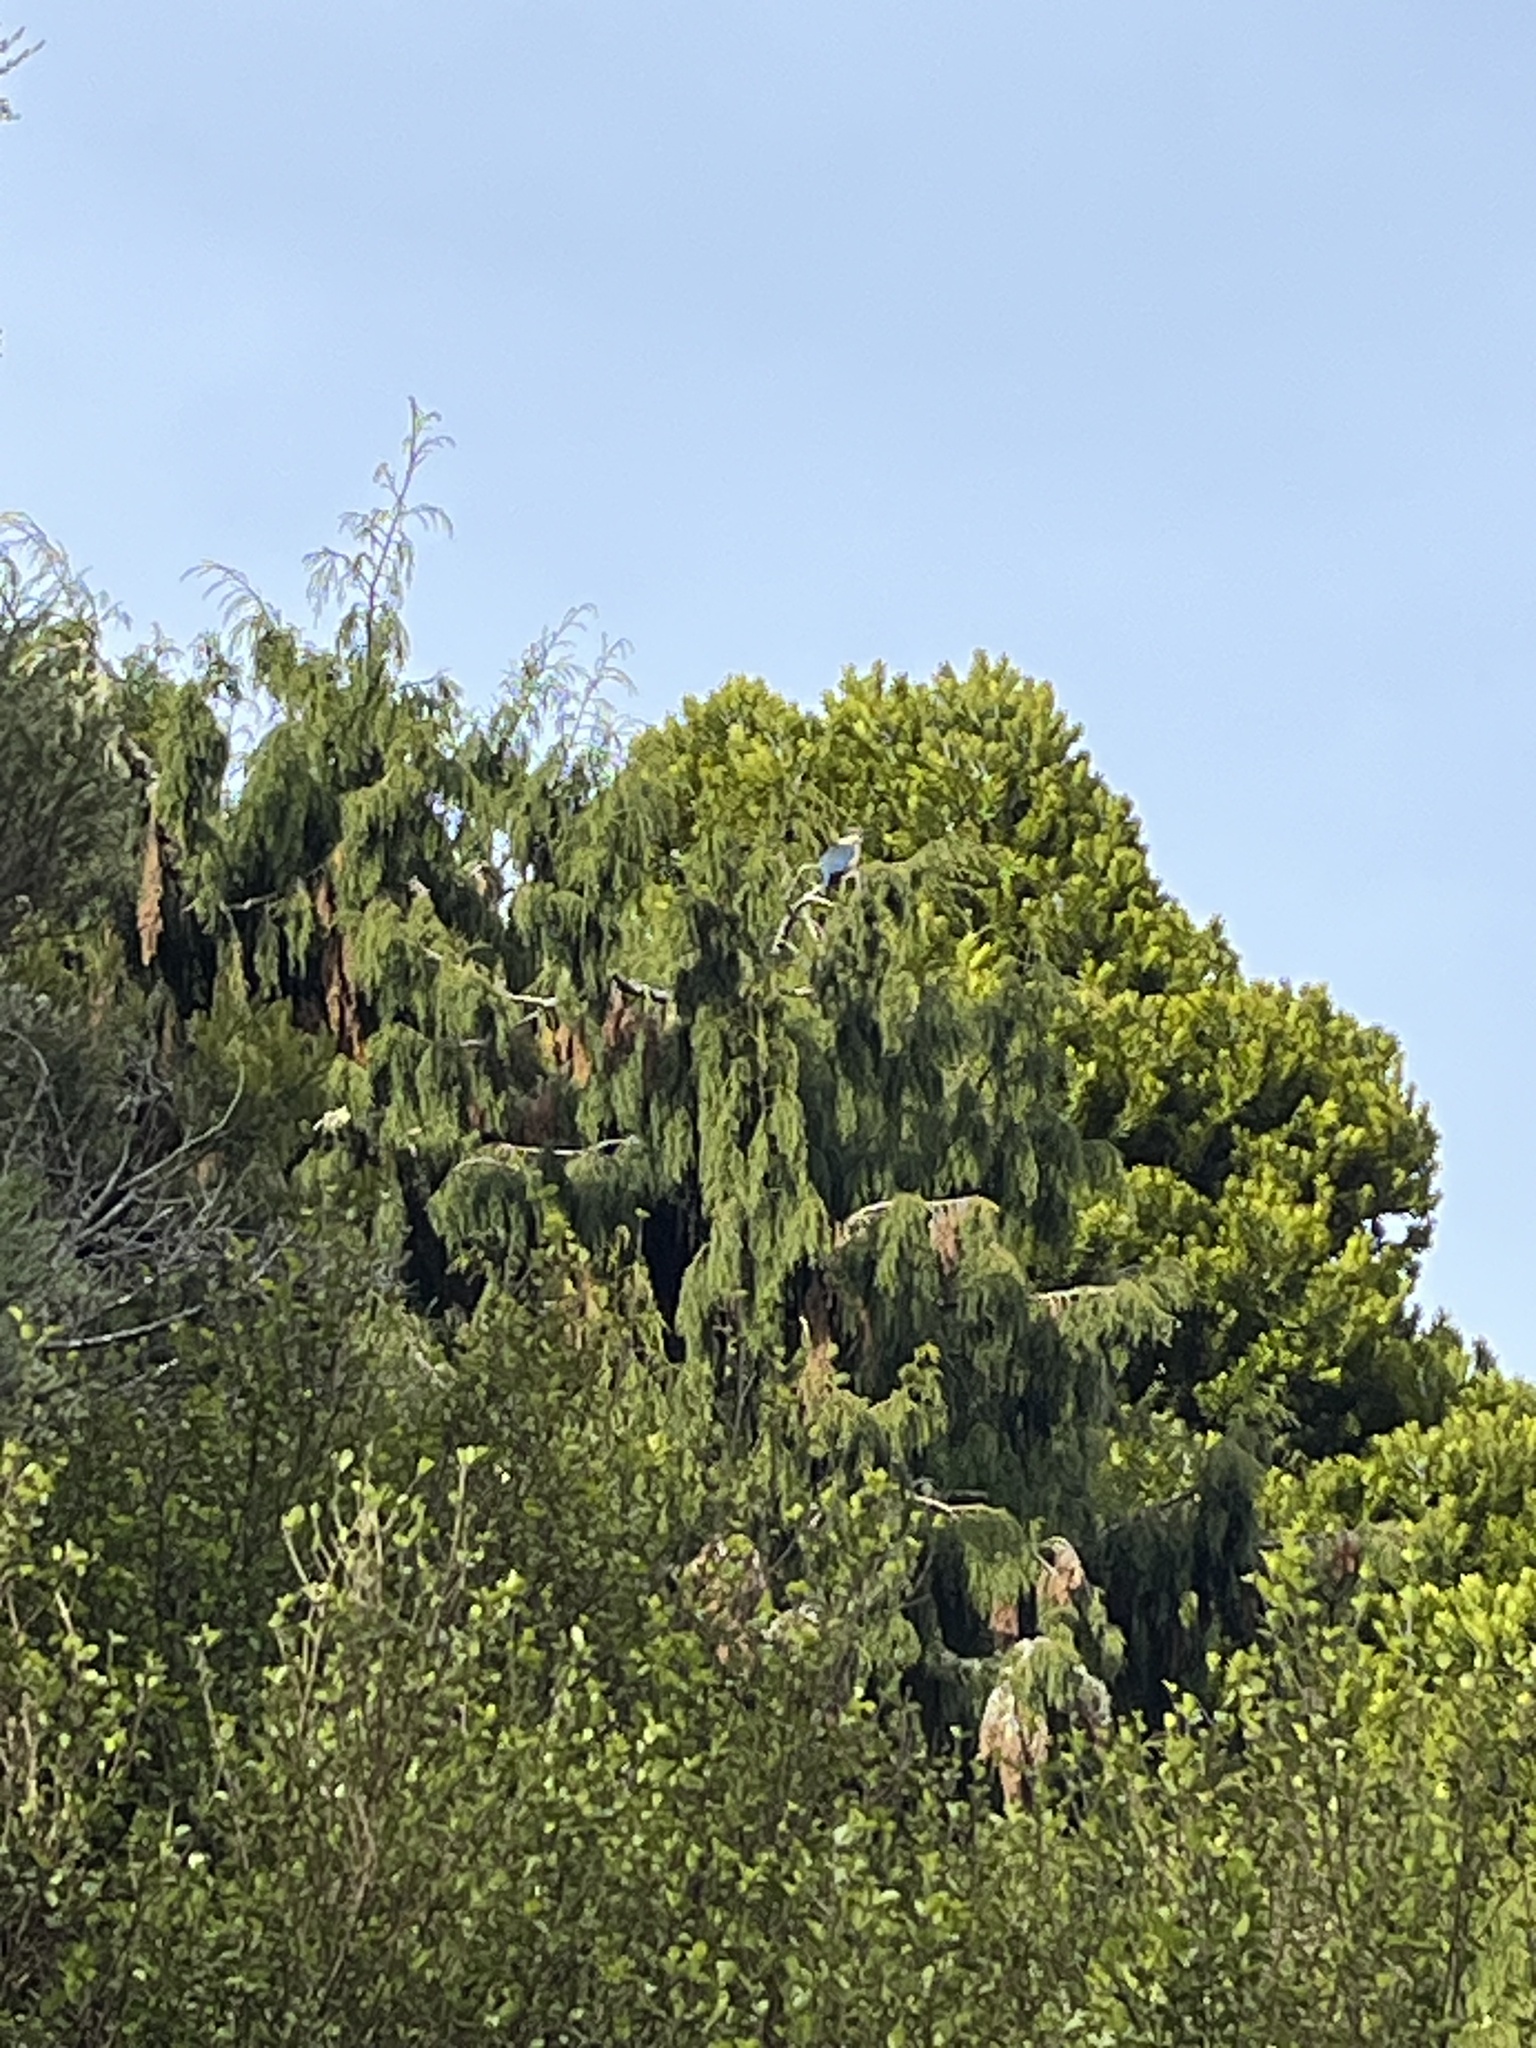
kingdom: Animalia
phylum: Chordata
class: Aves
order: Coraciiformes
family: Alcedinidae
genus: Todiramphus
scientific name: Todiramphus sanctus
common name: Sacred kingfisher
